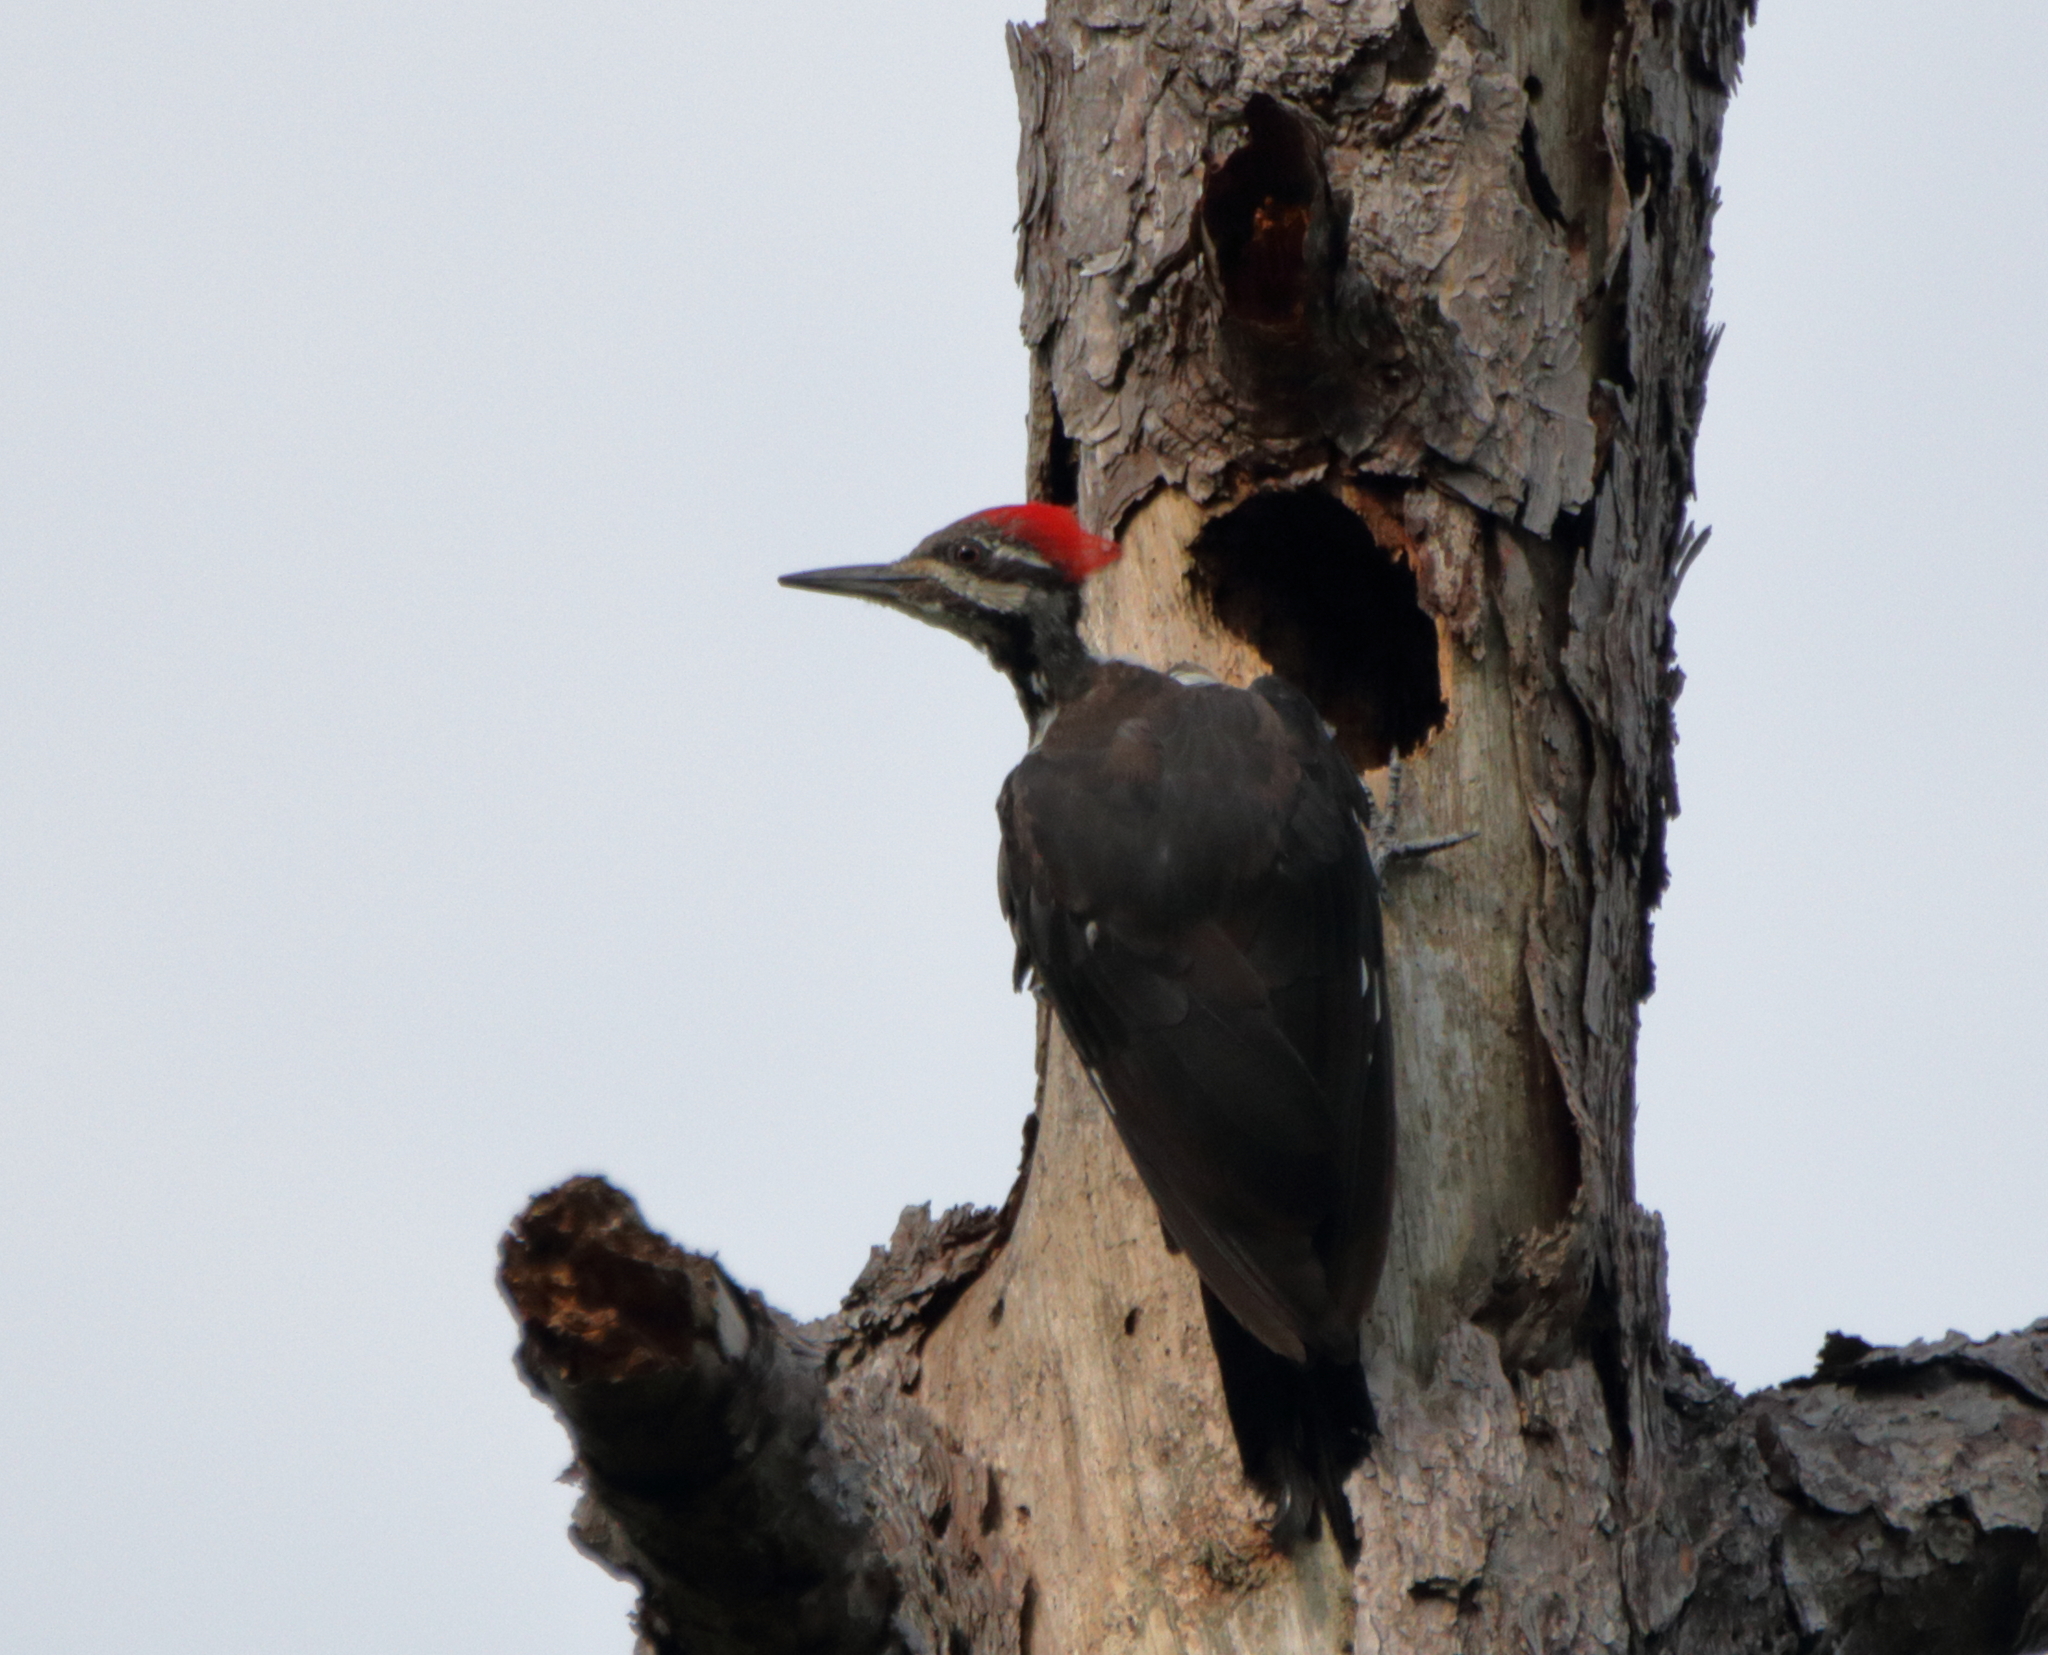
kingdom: Animalia
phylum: Chordata
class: Aves
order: Piciformes
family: Picidae
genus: Dryocopus
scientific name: Dryocopus pileatus
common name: Pileated woodpecker
